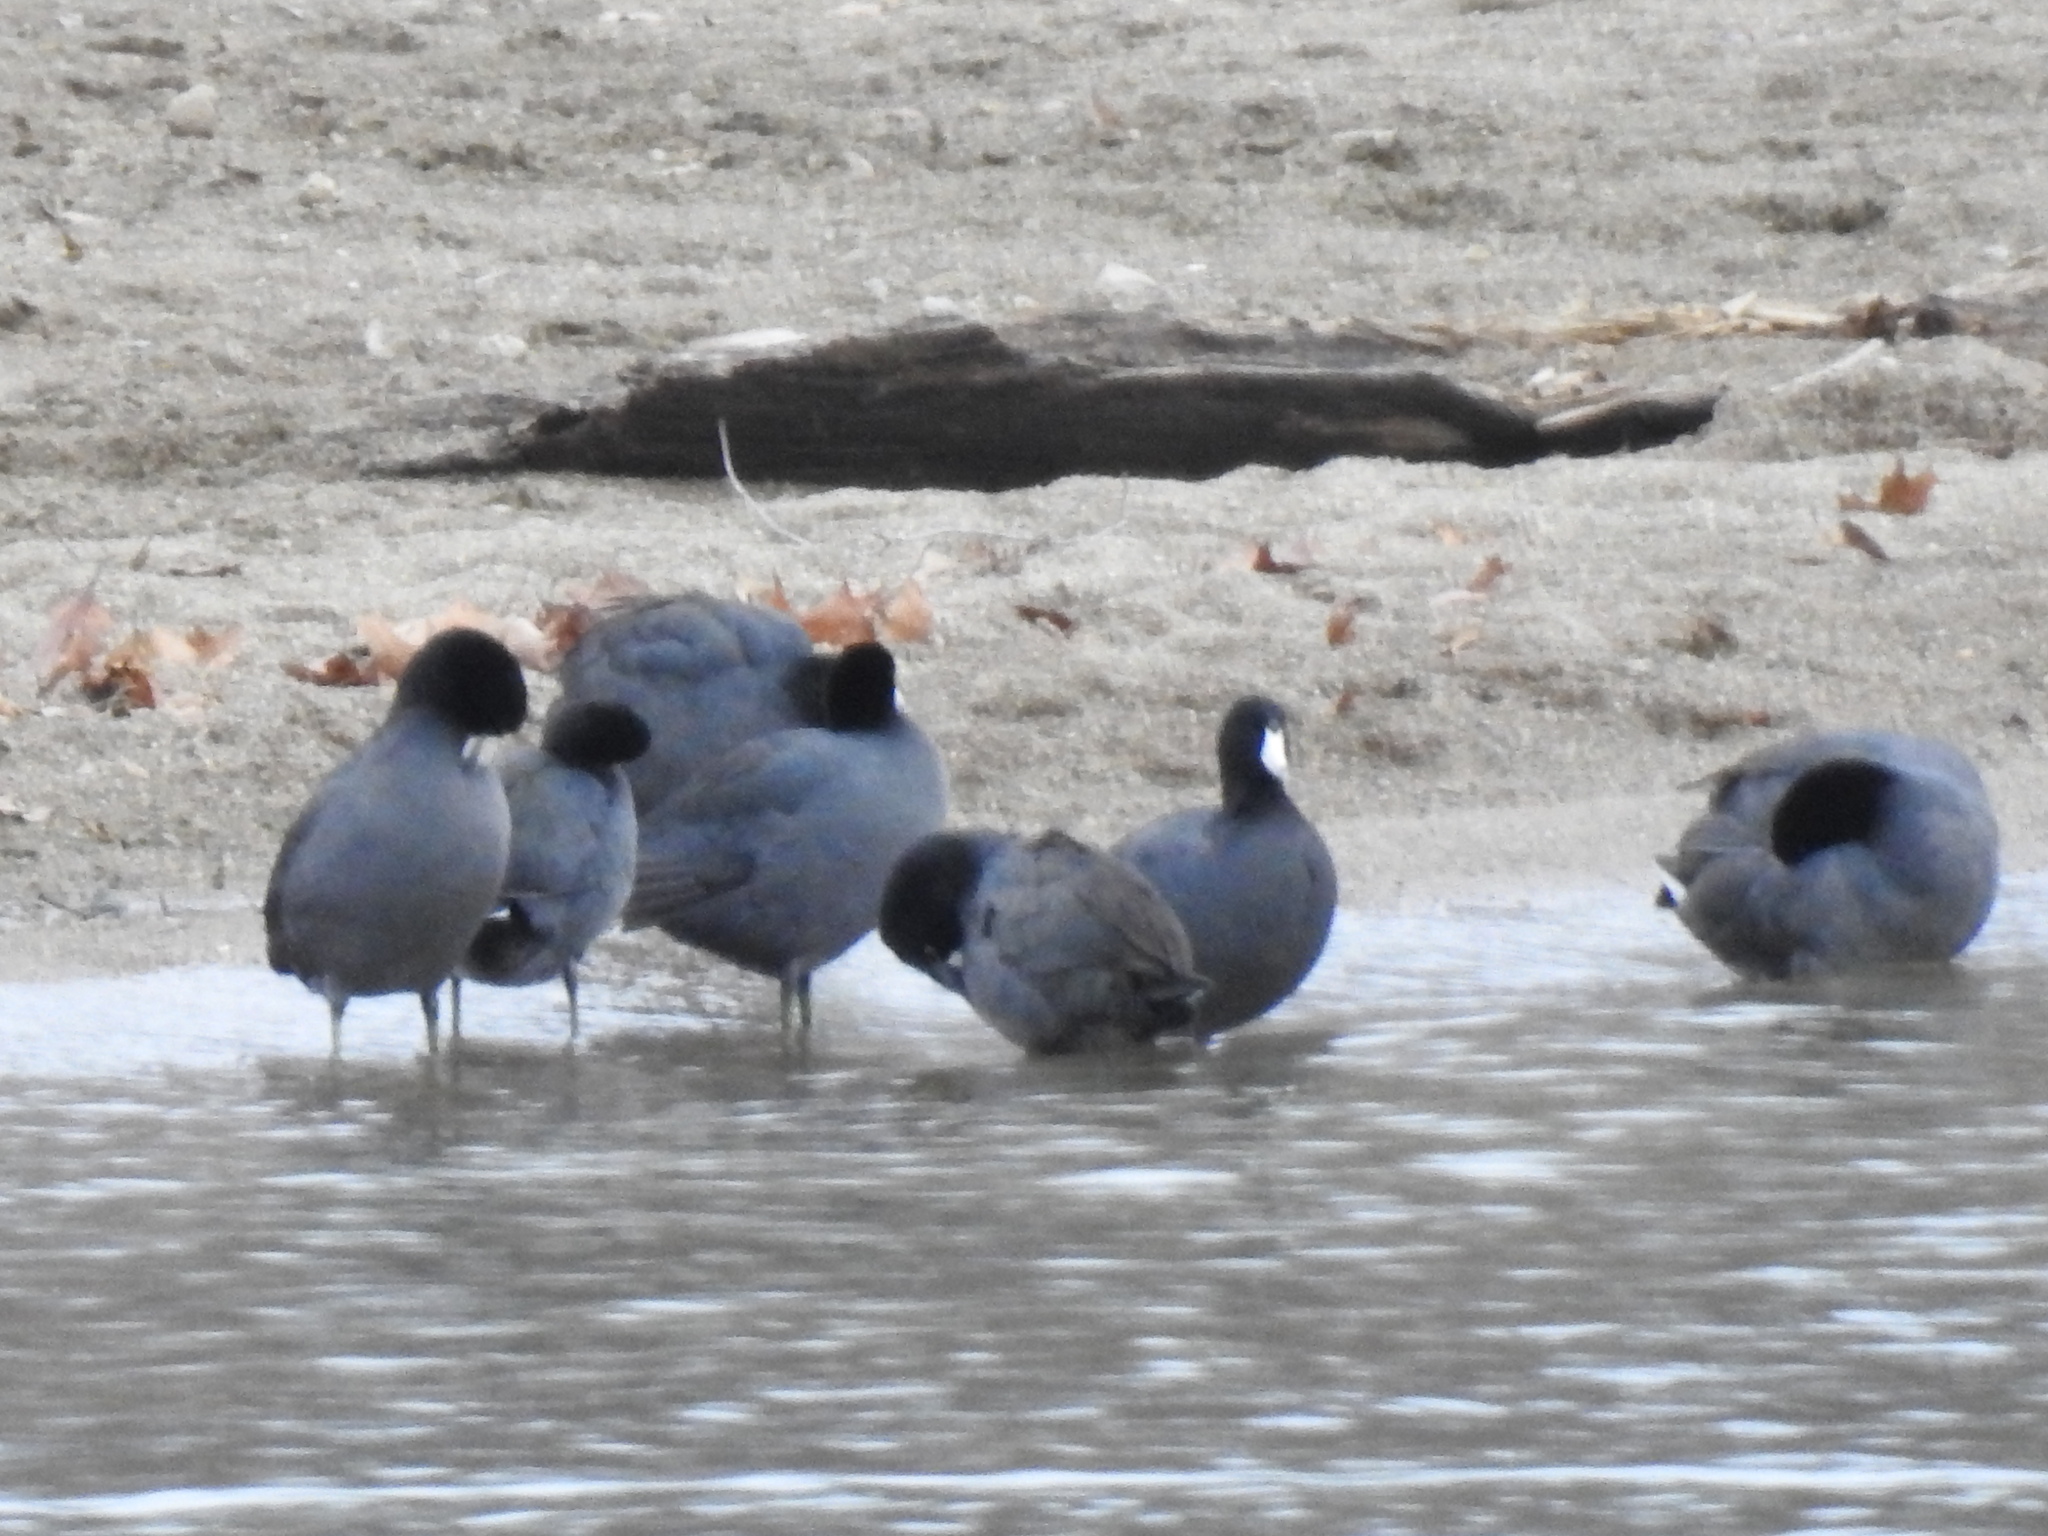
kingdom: Animalia
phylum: Chordata
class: Aves
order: Gruiformes
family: Rallidae
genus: Fulica
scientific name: Fulica americana
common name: American coot
